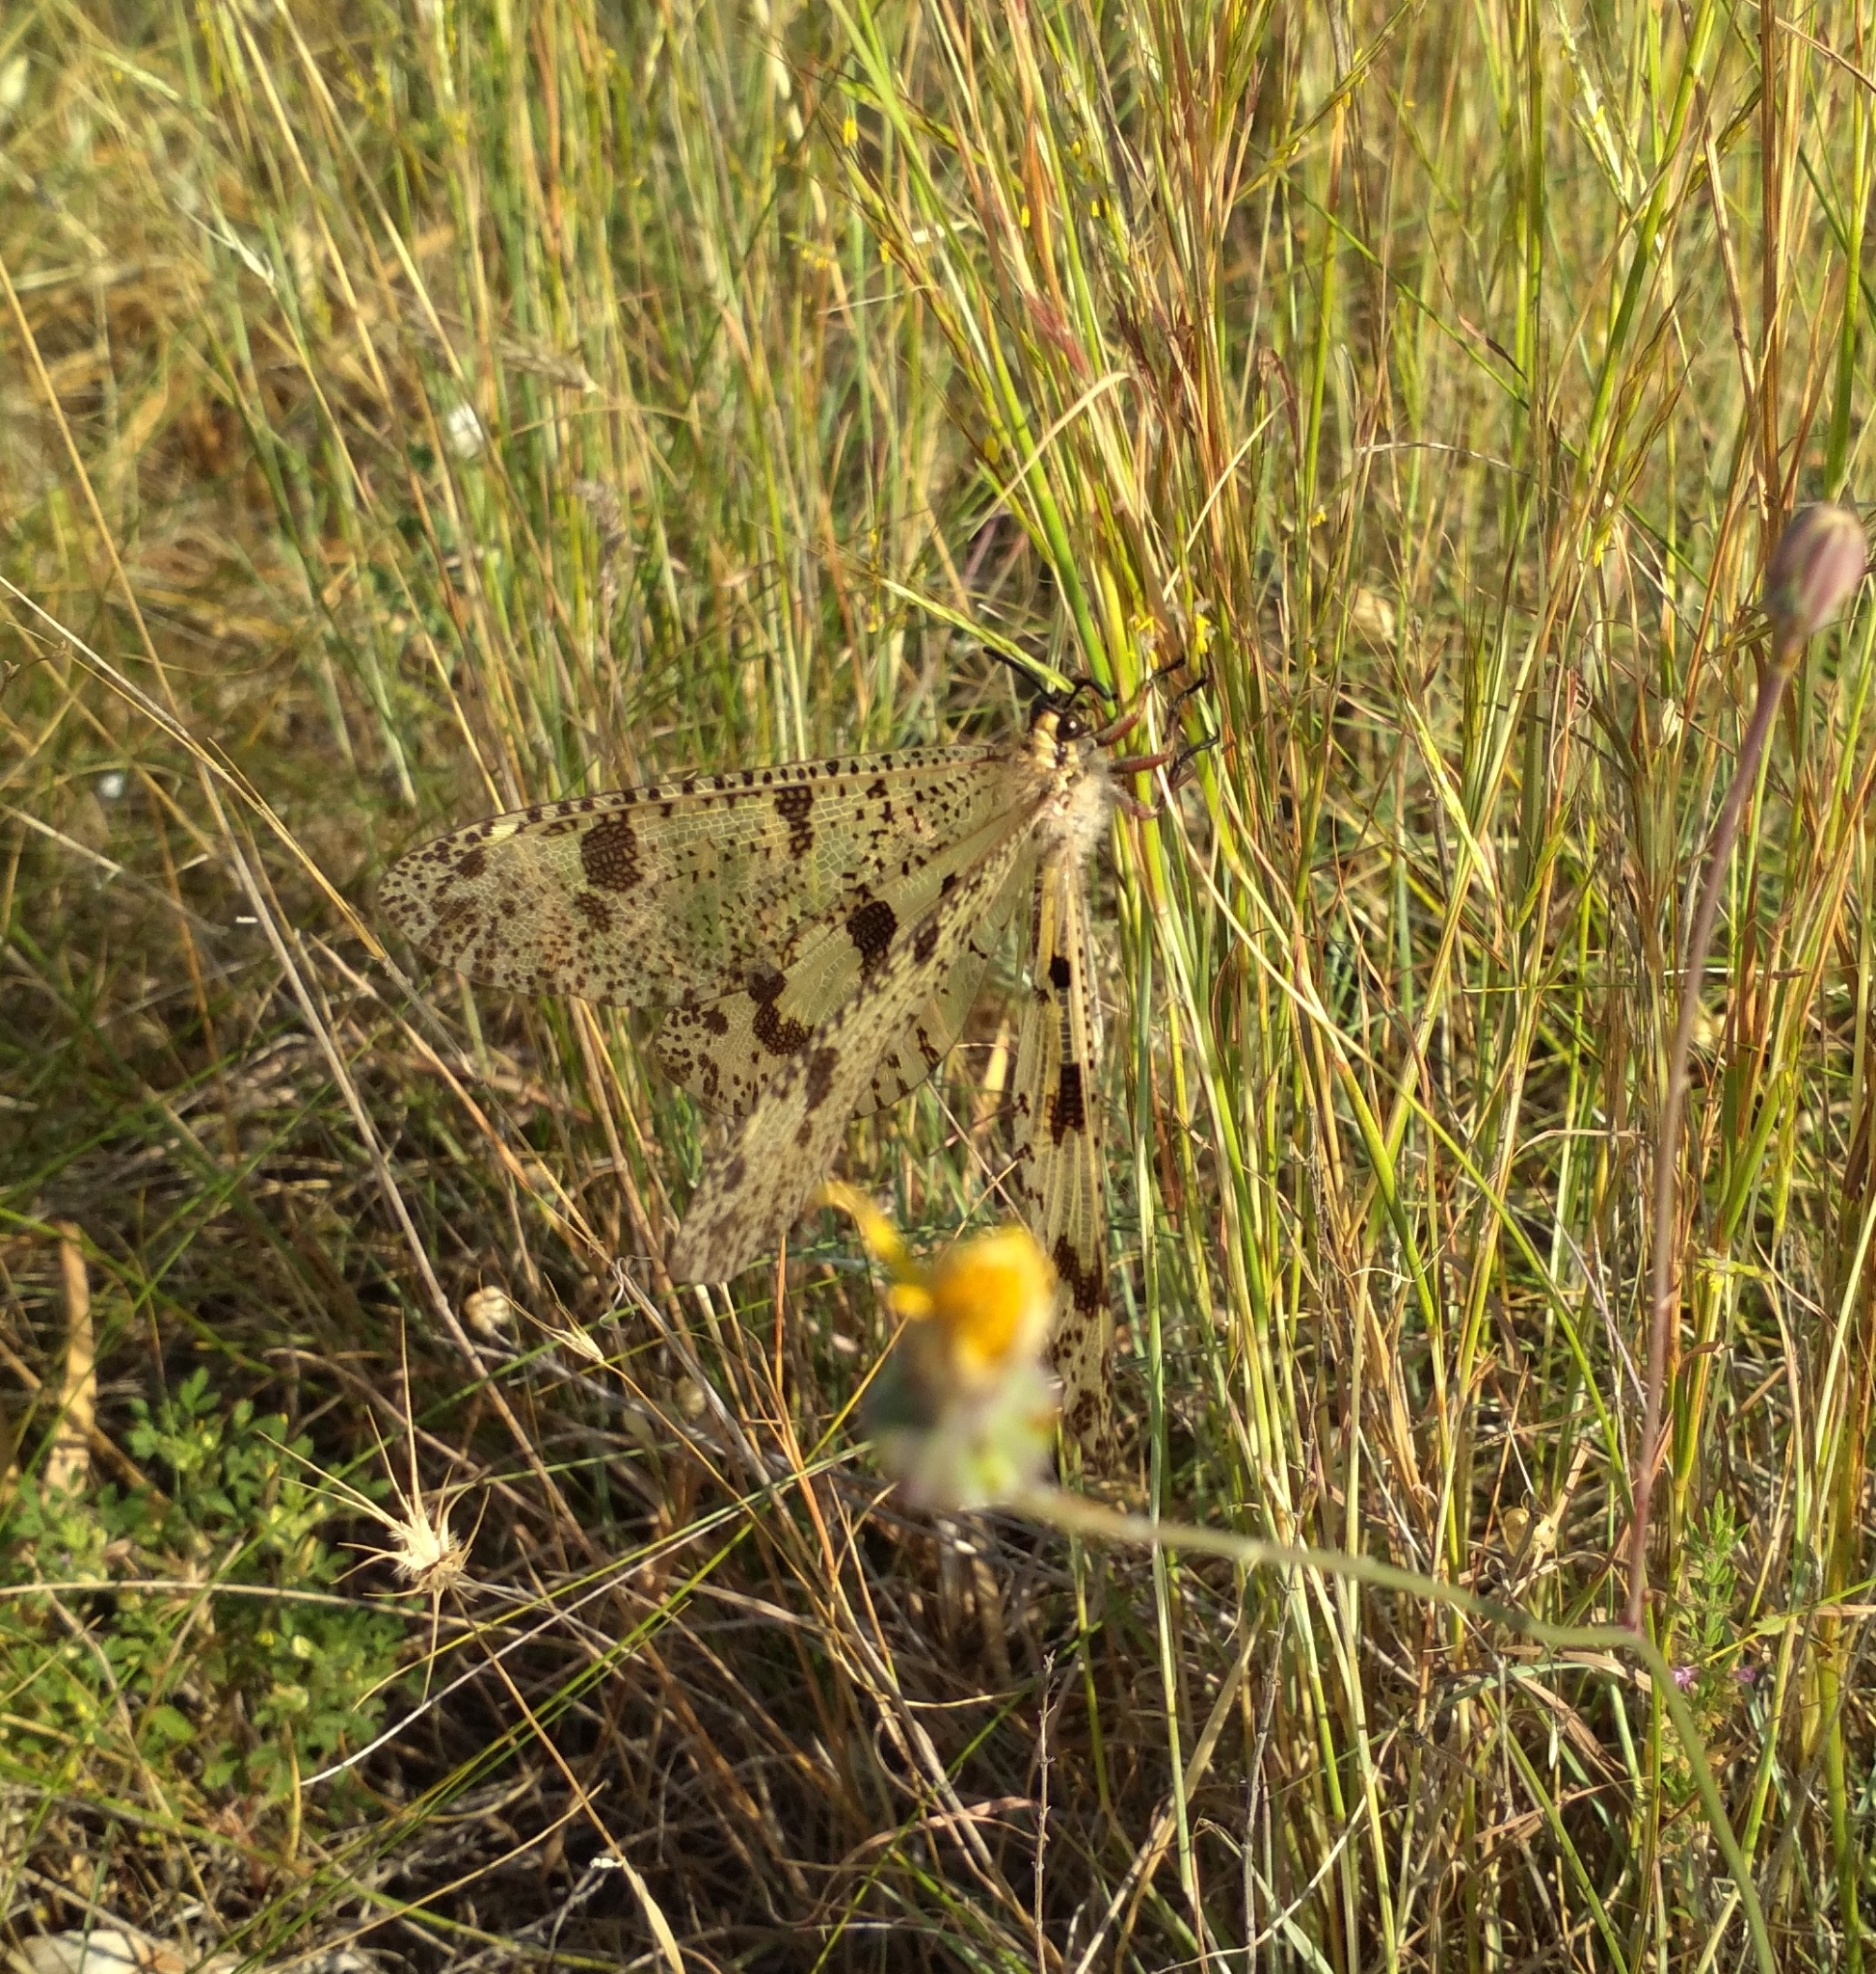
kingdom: Animalia
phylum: Arthropoda
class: Insecta
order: Neuroptera
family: Myrmeleontidae
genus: Palpares
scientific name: Palpares libelluloides
